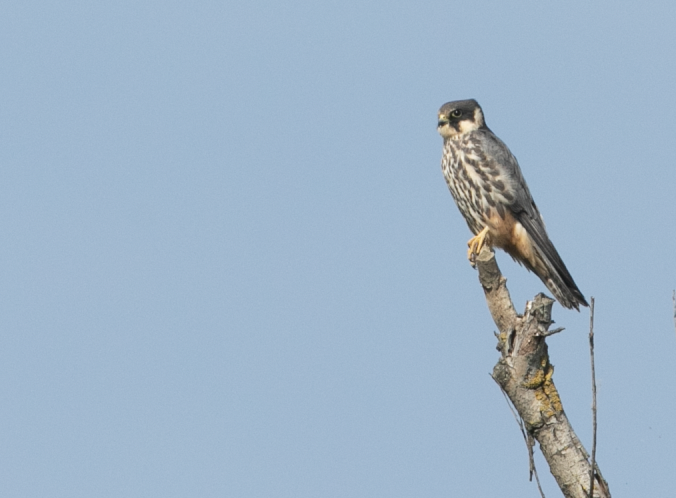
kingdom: Animalia
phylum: Chordata
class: Aves
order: Falconiformes
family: Falconidae
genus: Falco
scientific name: Falco subbuteo
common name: Eurasian hobby
